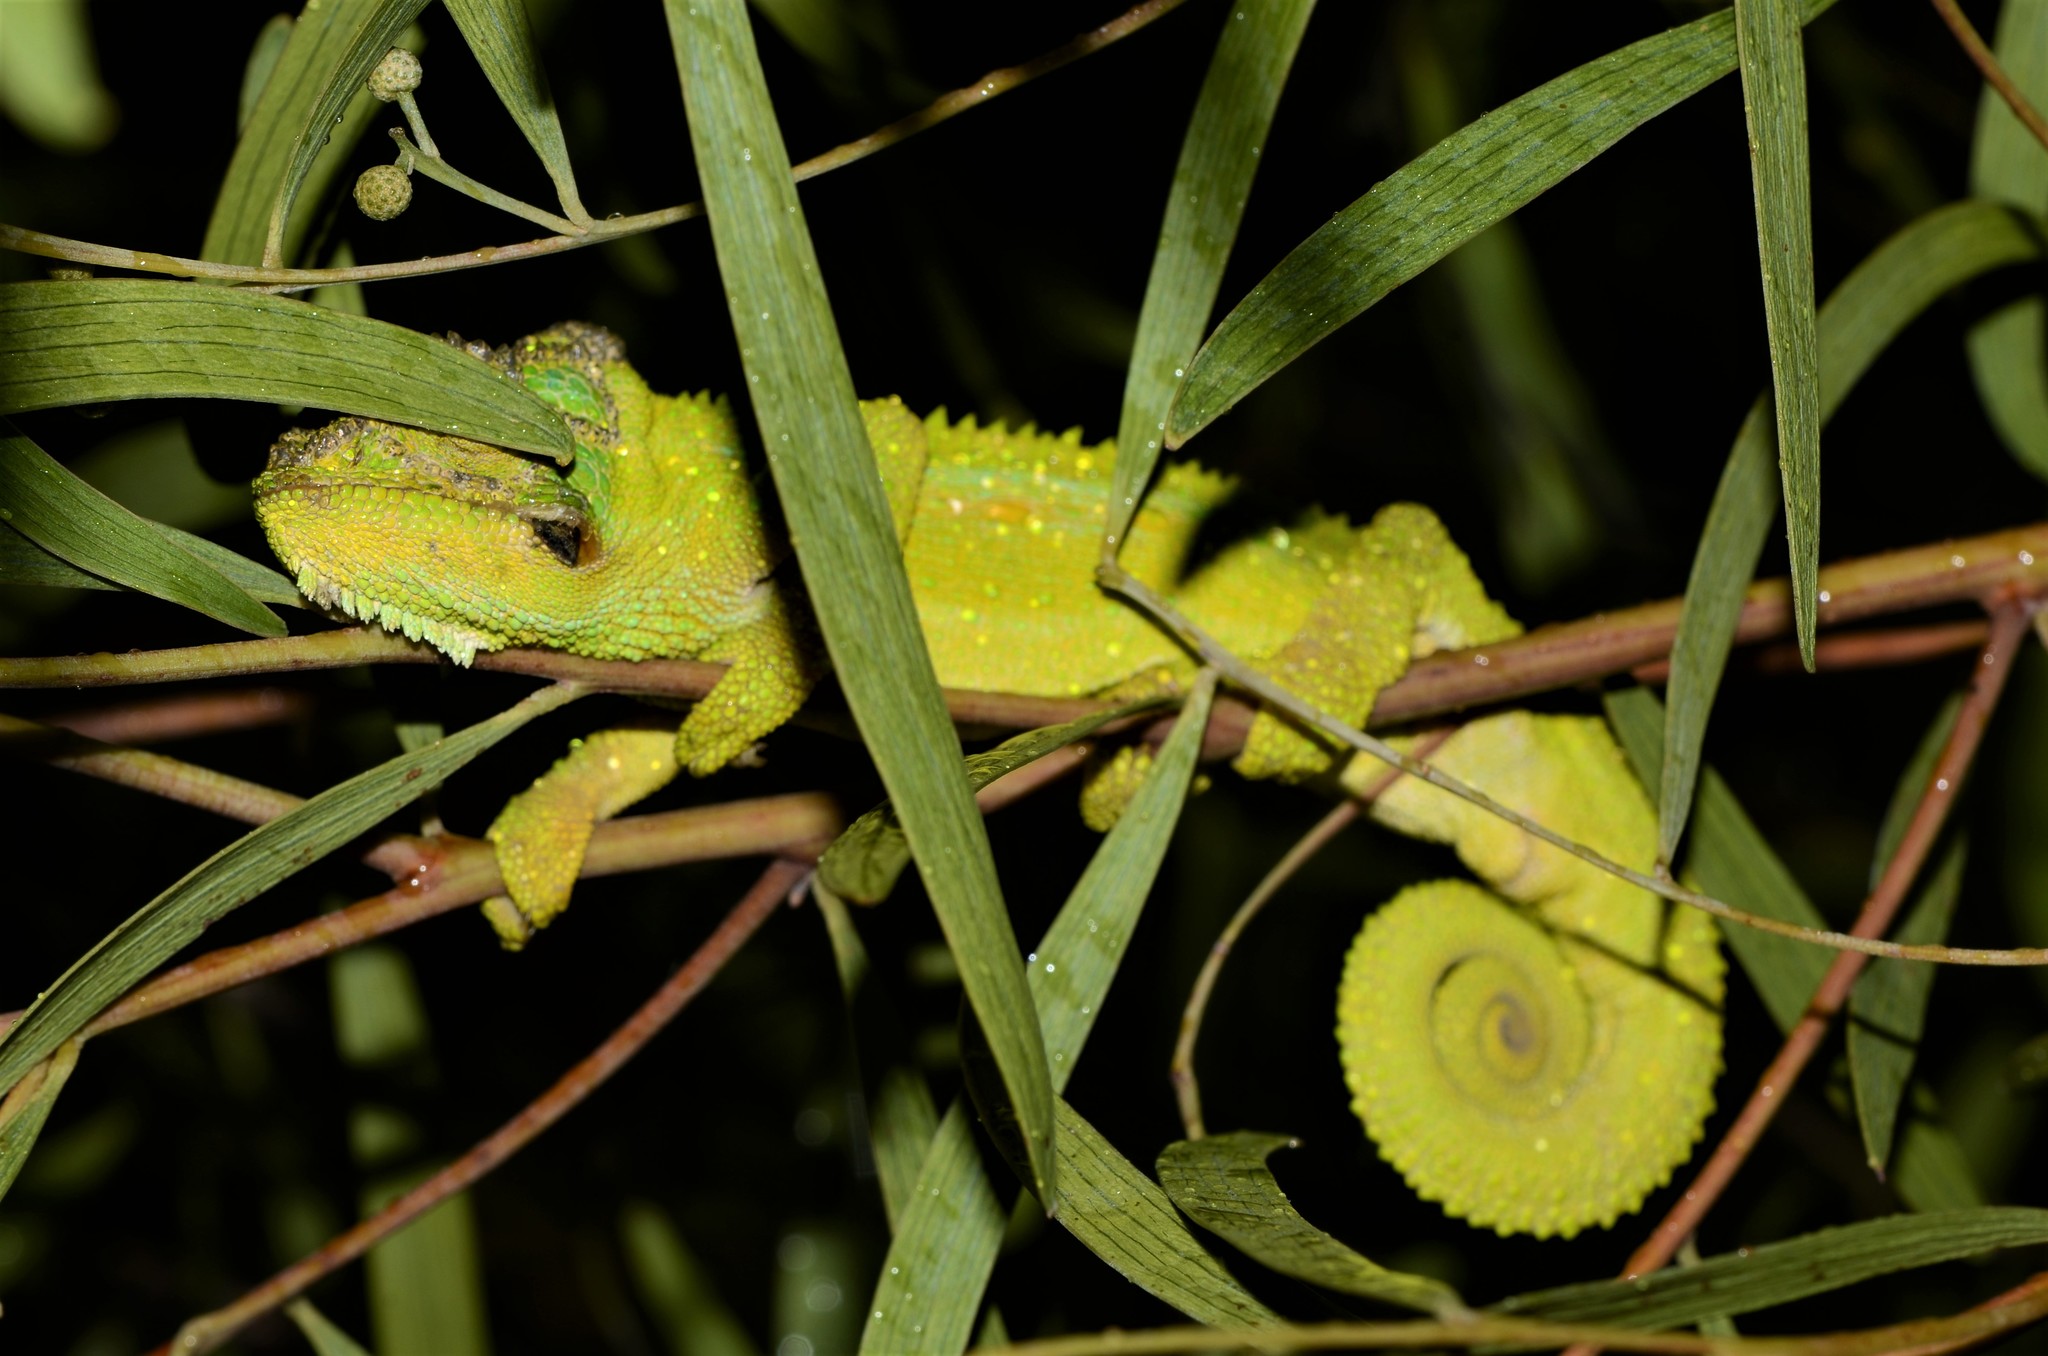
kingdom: Animalia
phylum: Chordata
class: Squamata
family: Chamaeleonidae
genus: Bradypodion
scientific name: Bradypodion pumilum
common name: Cape dwarf chameleon
